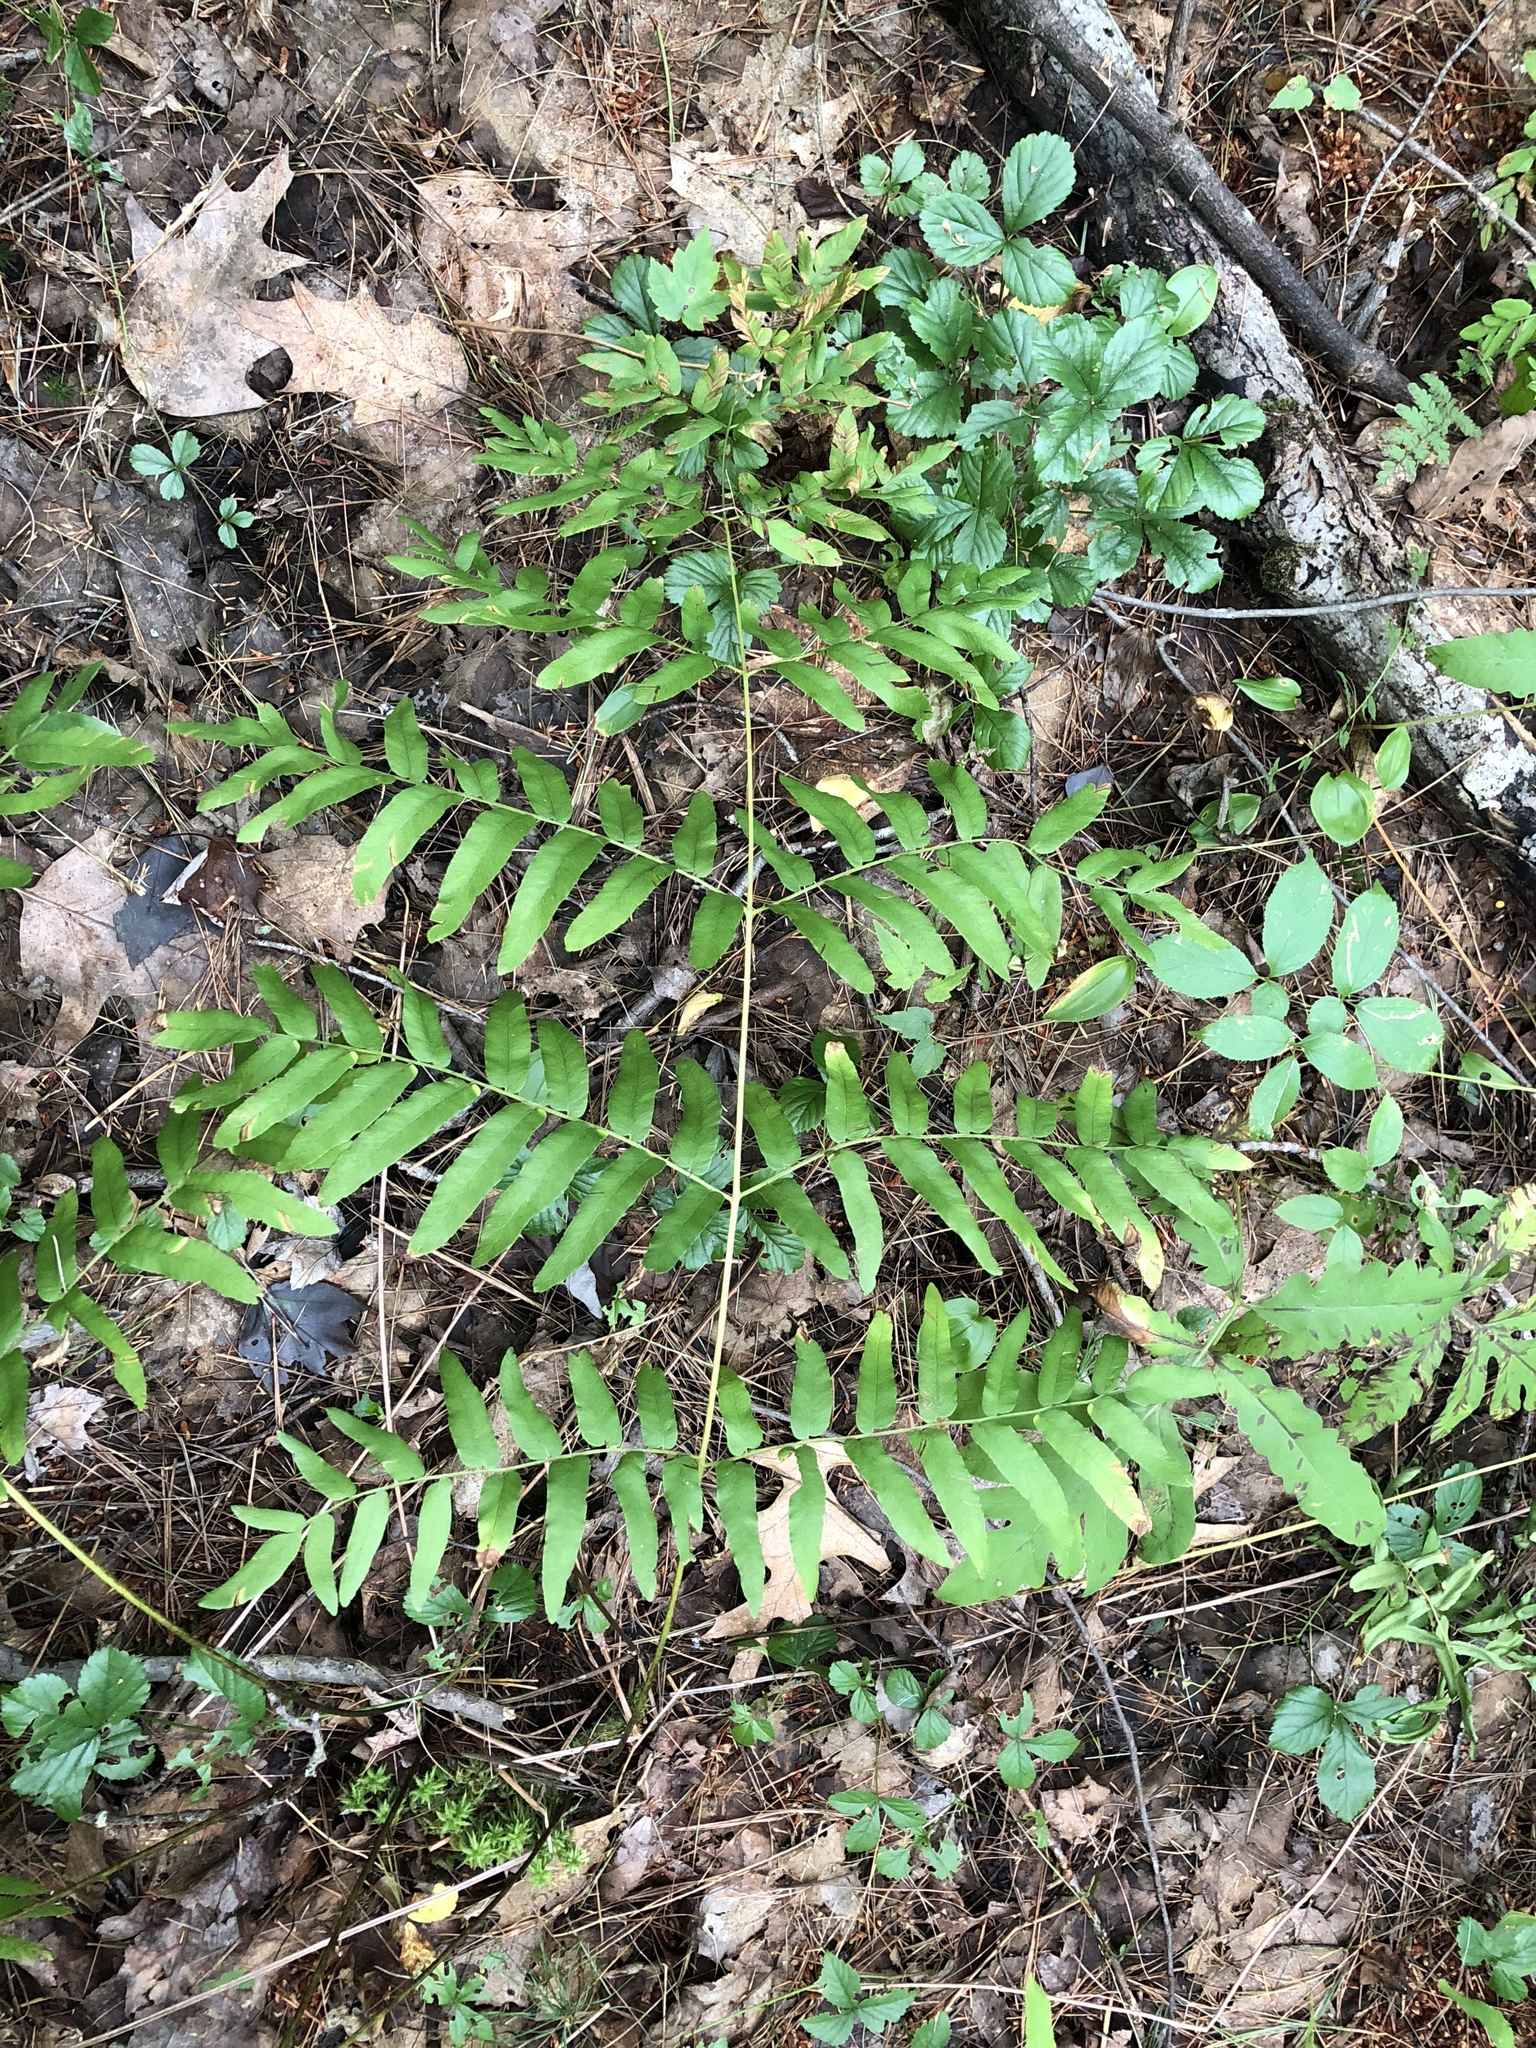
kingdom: Plantae
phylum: Tracheophyta
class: Polypodiopsida
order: Osmundales
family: Osmundaceae
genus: Osmunda
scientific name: Osmunda spectabilis
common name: American royal fern
